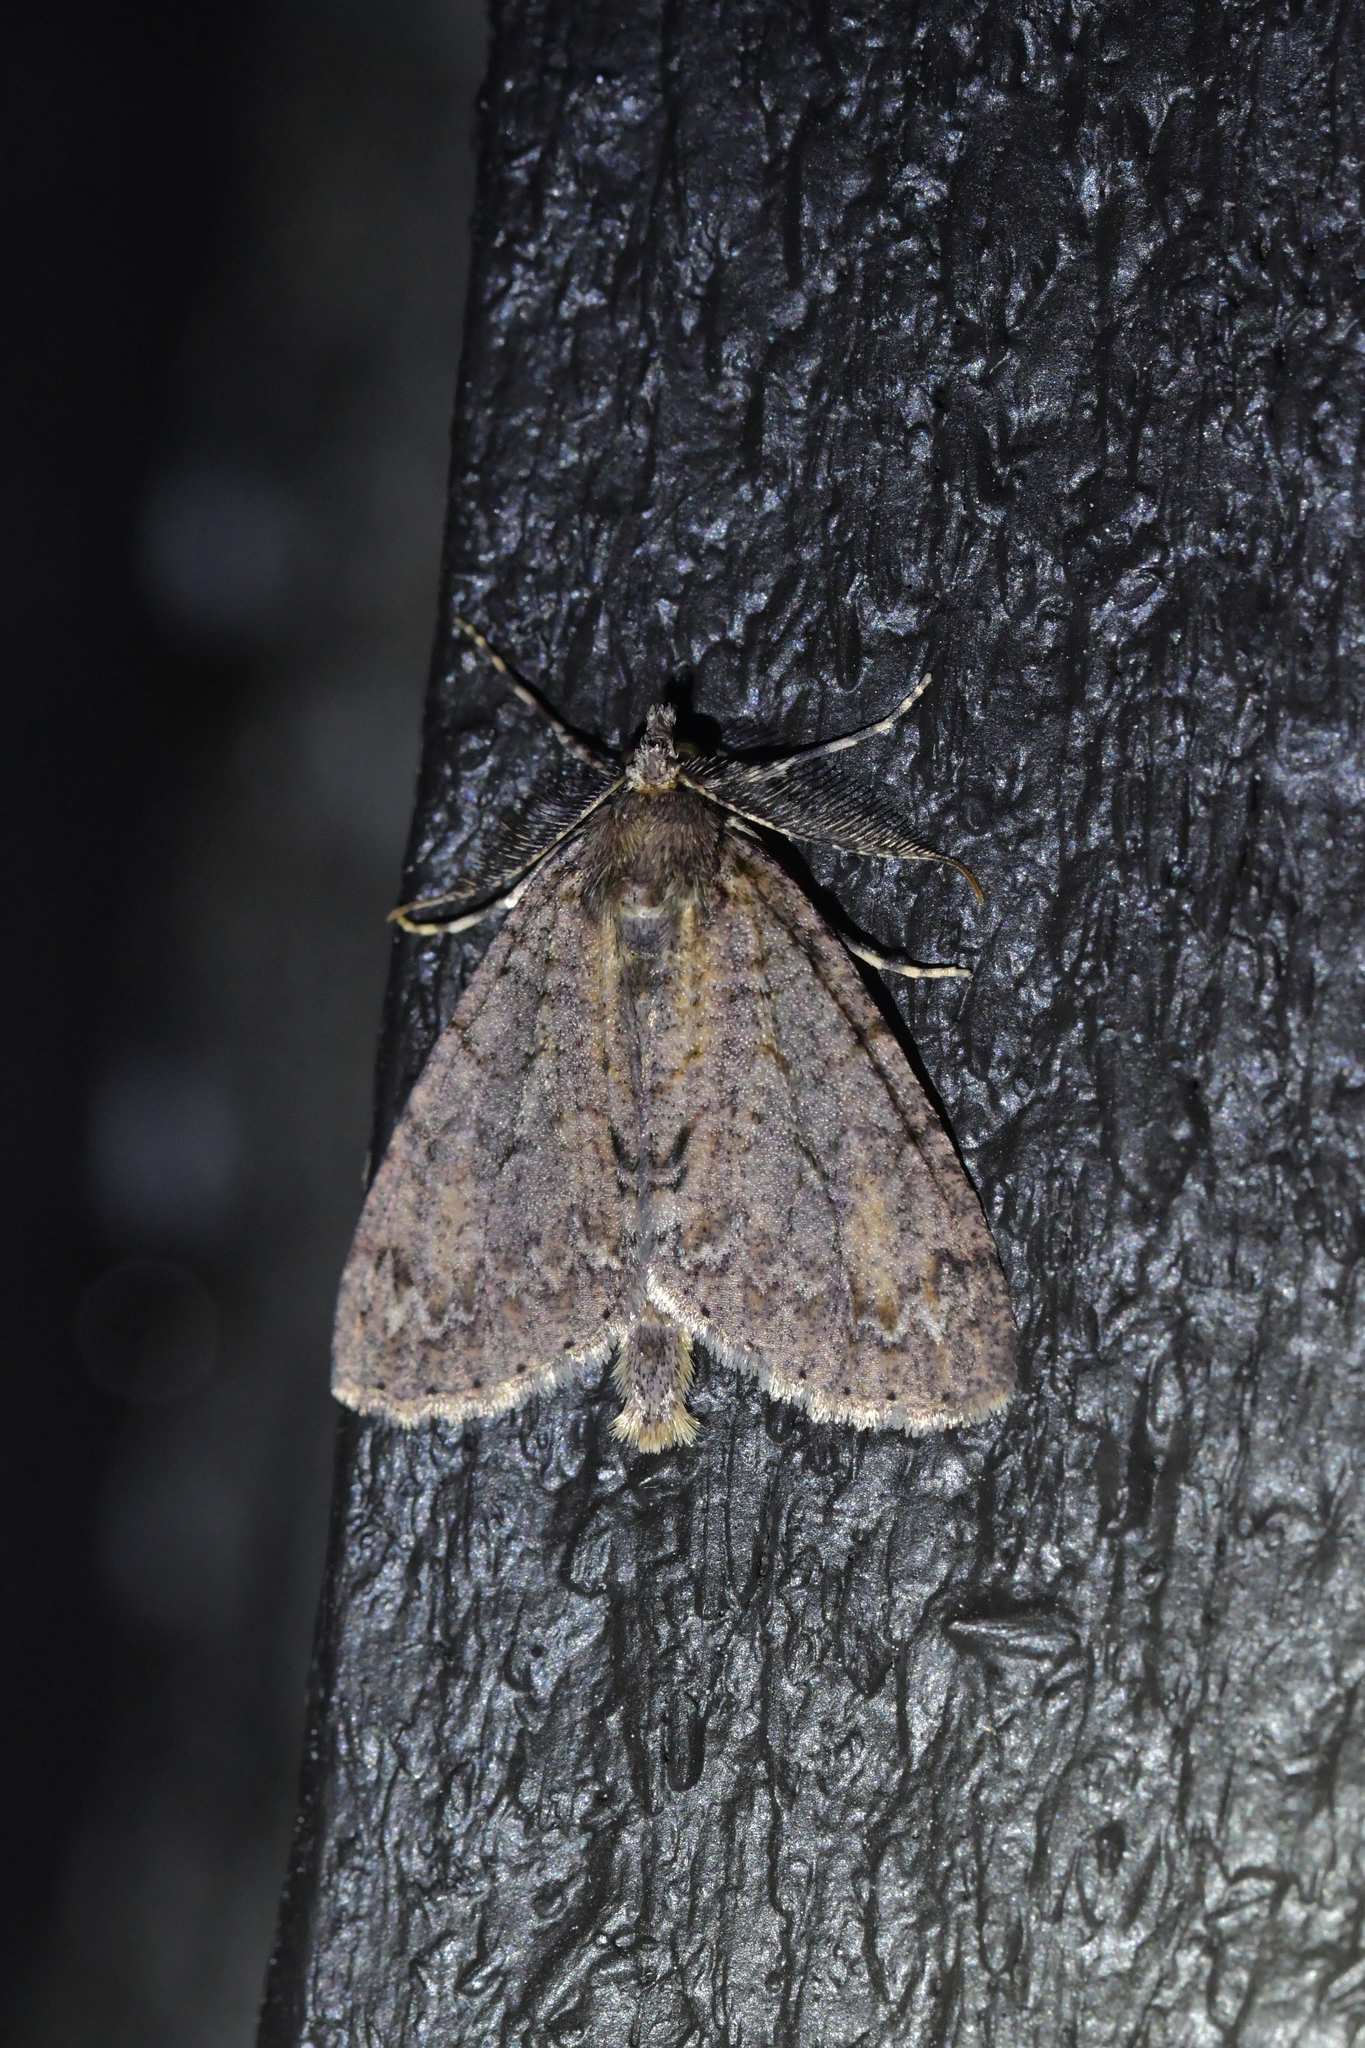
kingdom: Animalia
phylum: Arthropoda
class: Insecta
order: Lepidoptera
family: Geometridae
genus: Pseudocoremia
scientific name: Pseudocoremia suavis
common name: Common forest looper
